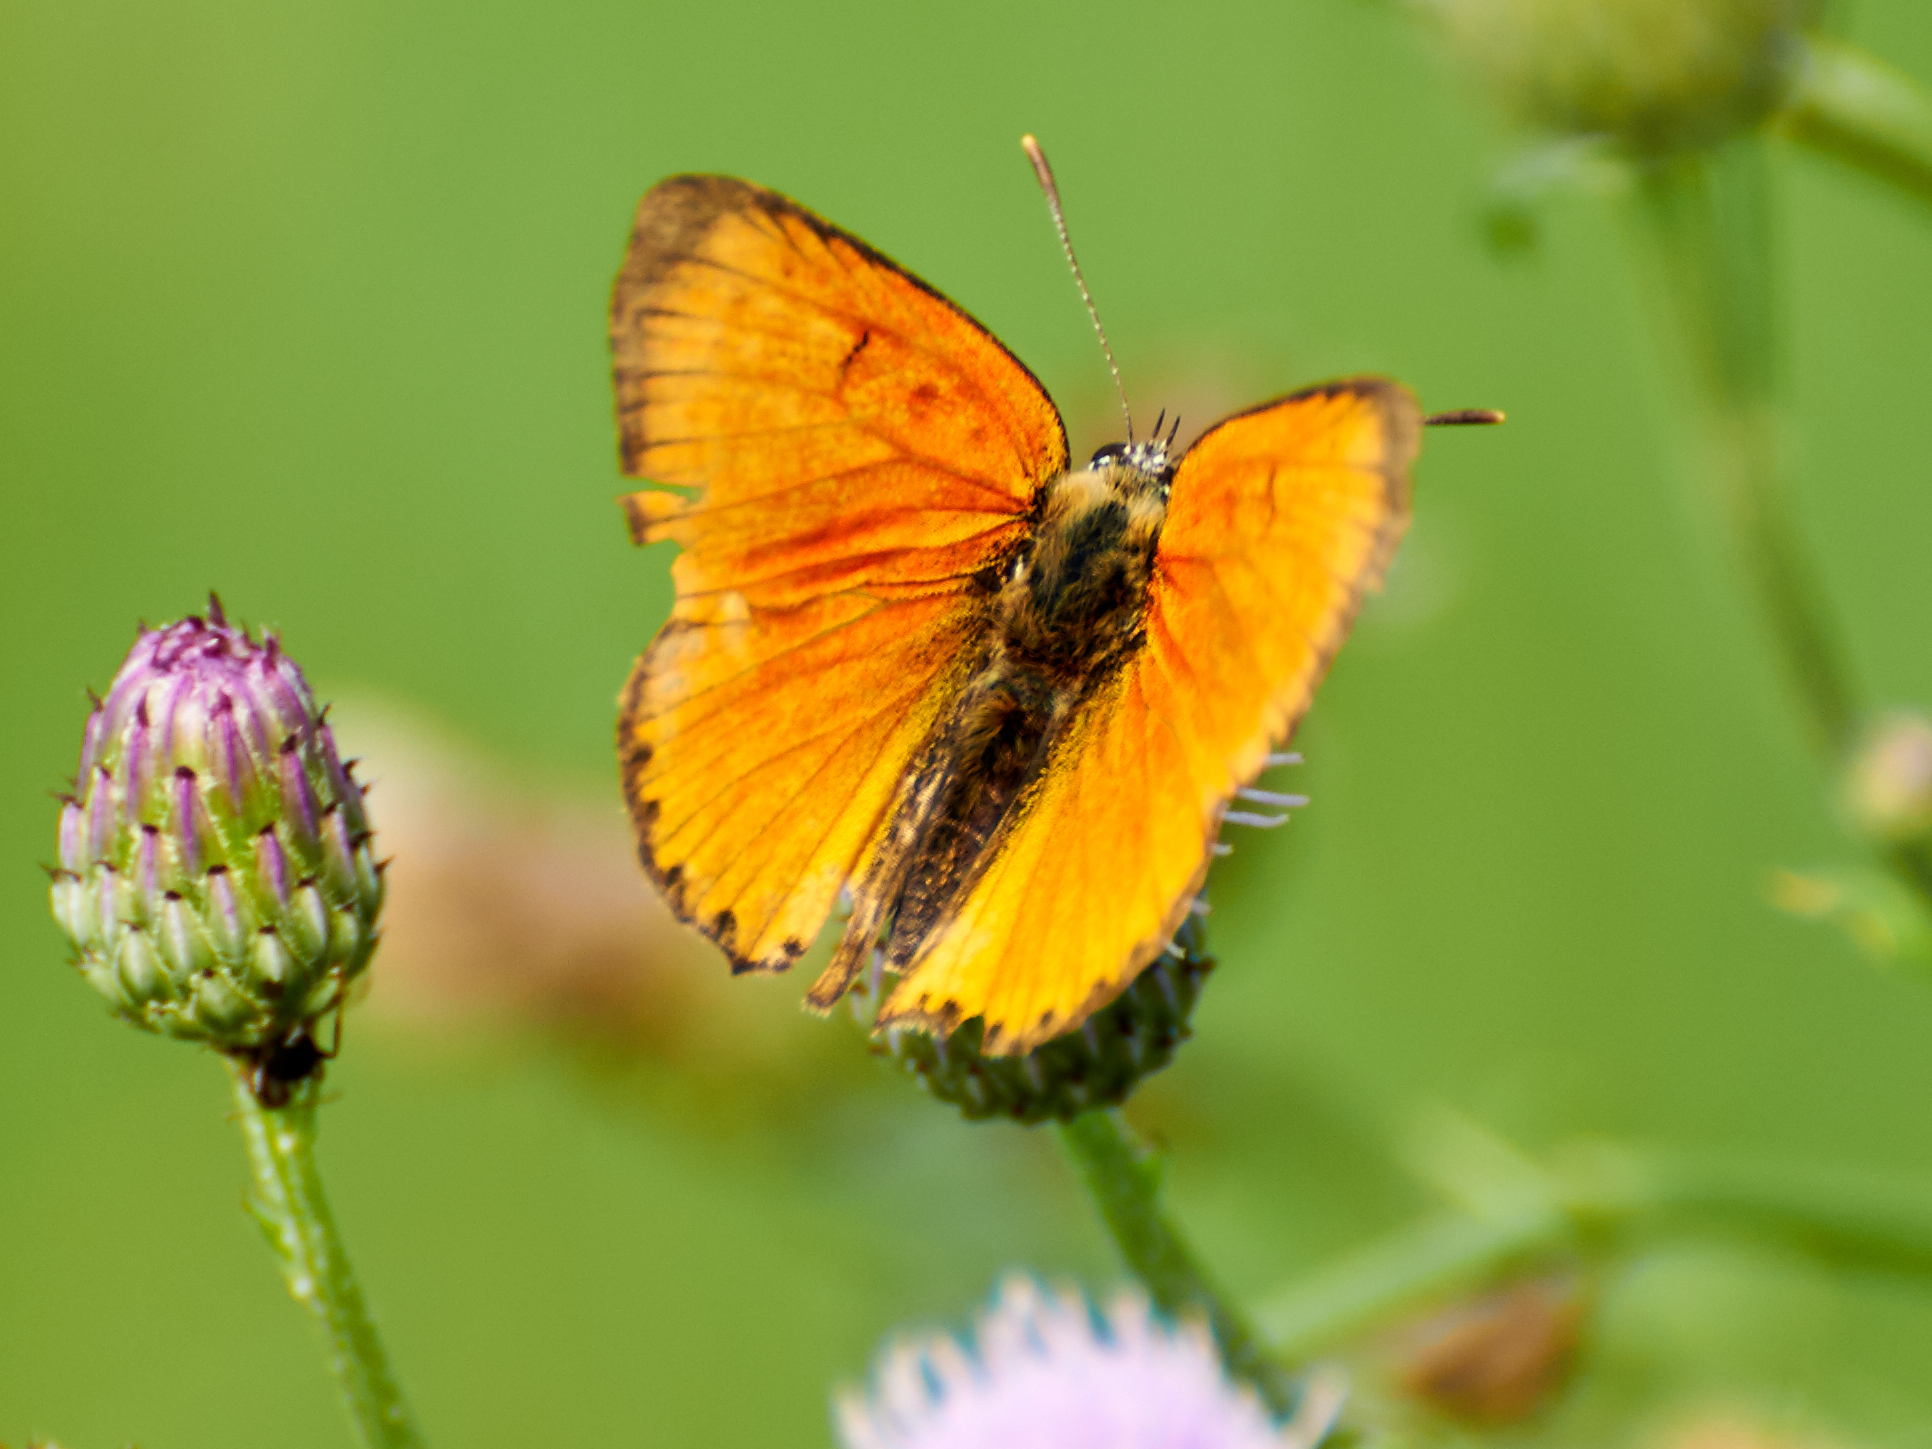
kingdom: Animalia
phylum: Arthropoda
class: Insecta
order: Lepidoptera
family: Lycaenidae
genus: Lycaena
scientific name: Lycaena virgaureae
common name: Scarce copper
